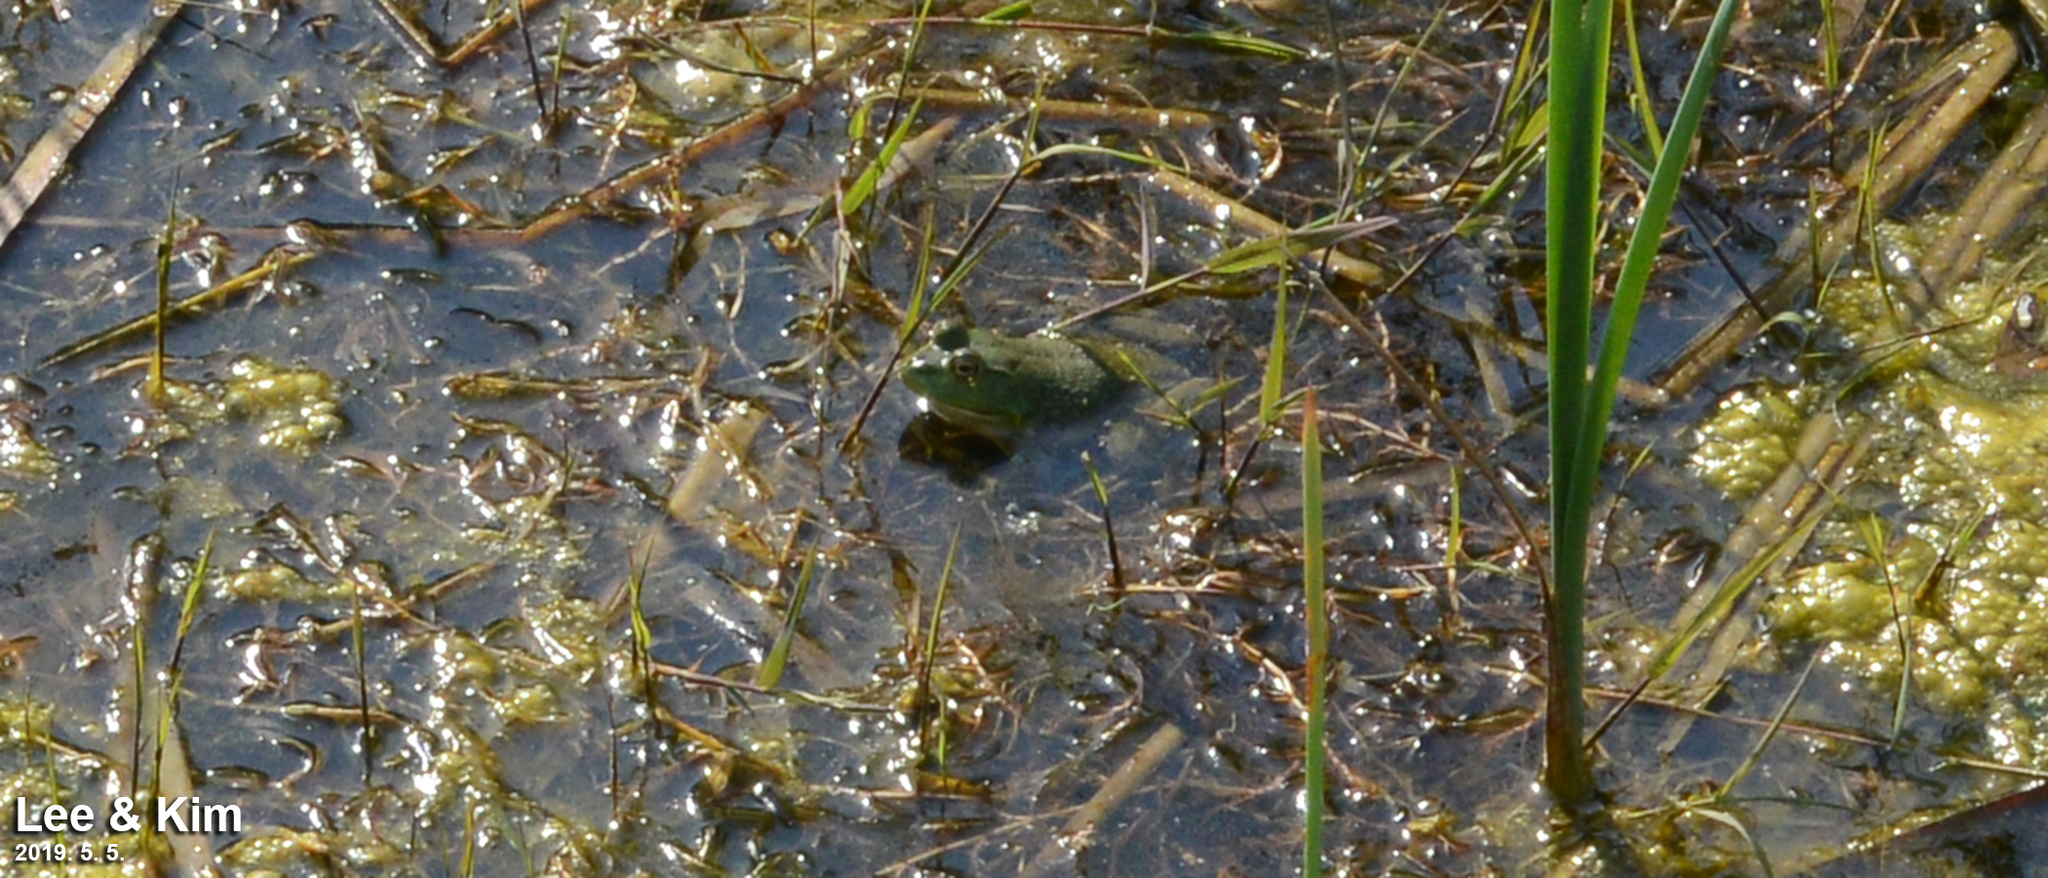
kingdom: Animalia
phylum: Chordata
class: Amphibia
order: Anura
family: Ranidae
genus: Lithobates
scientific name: Lithobates catesbeianus
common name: American bullfrog
